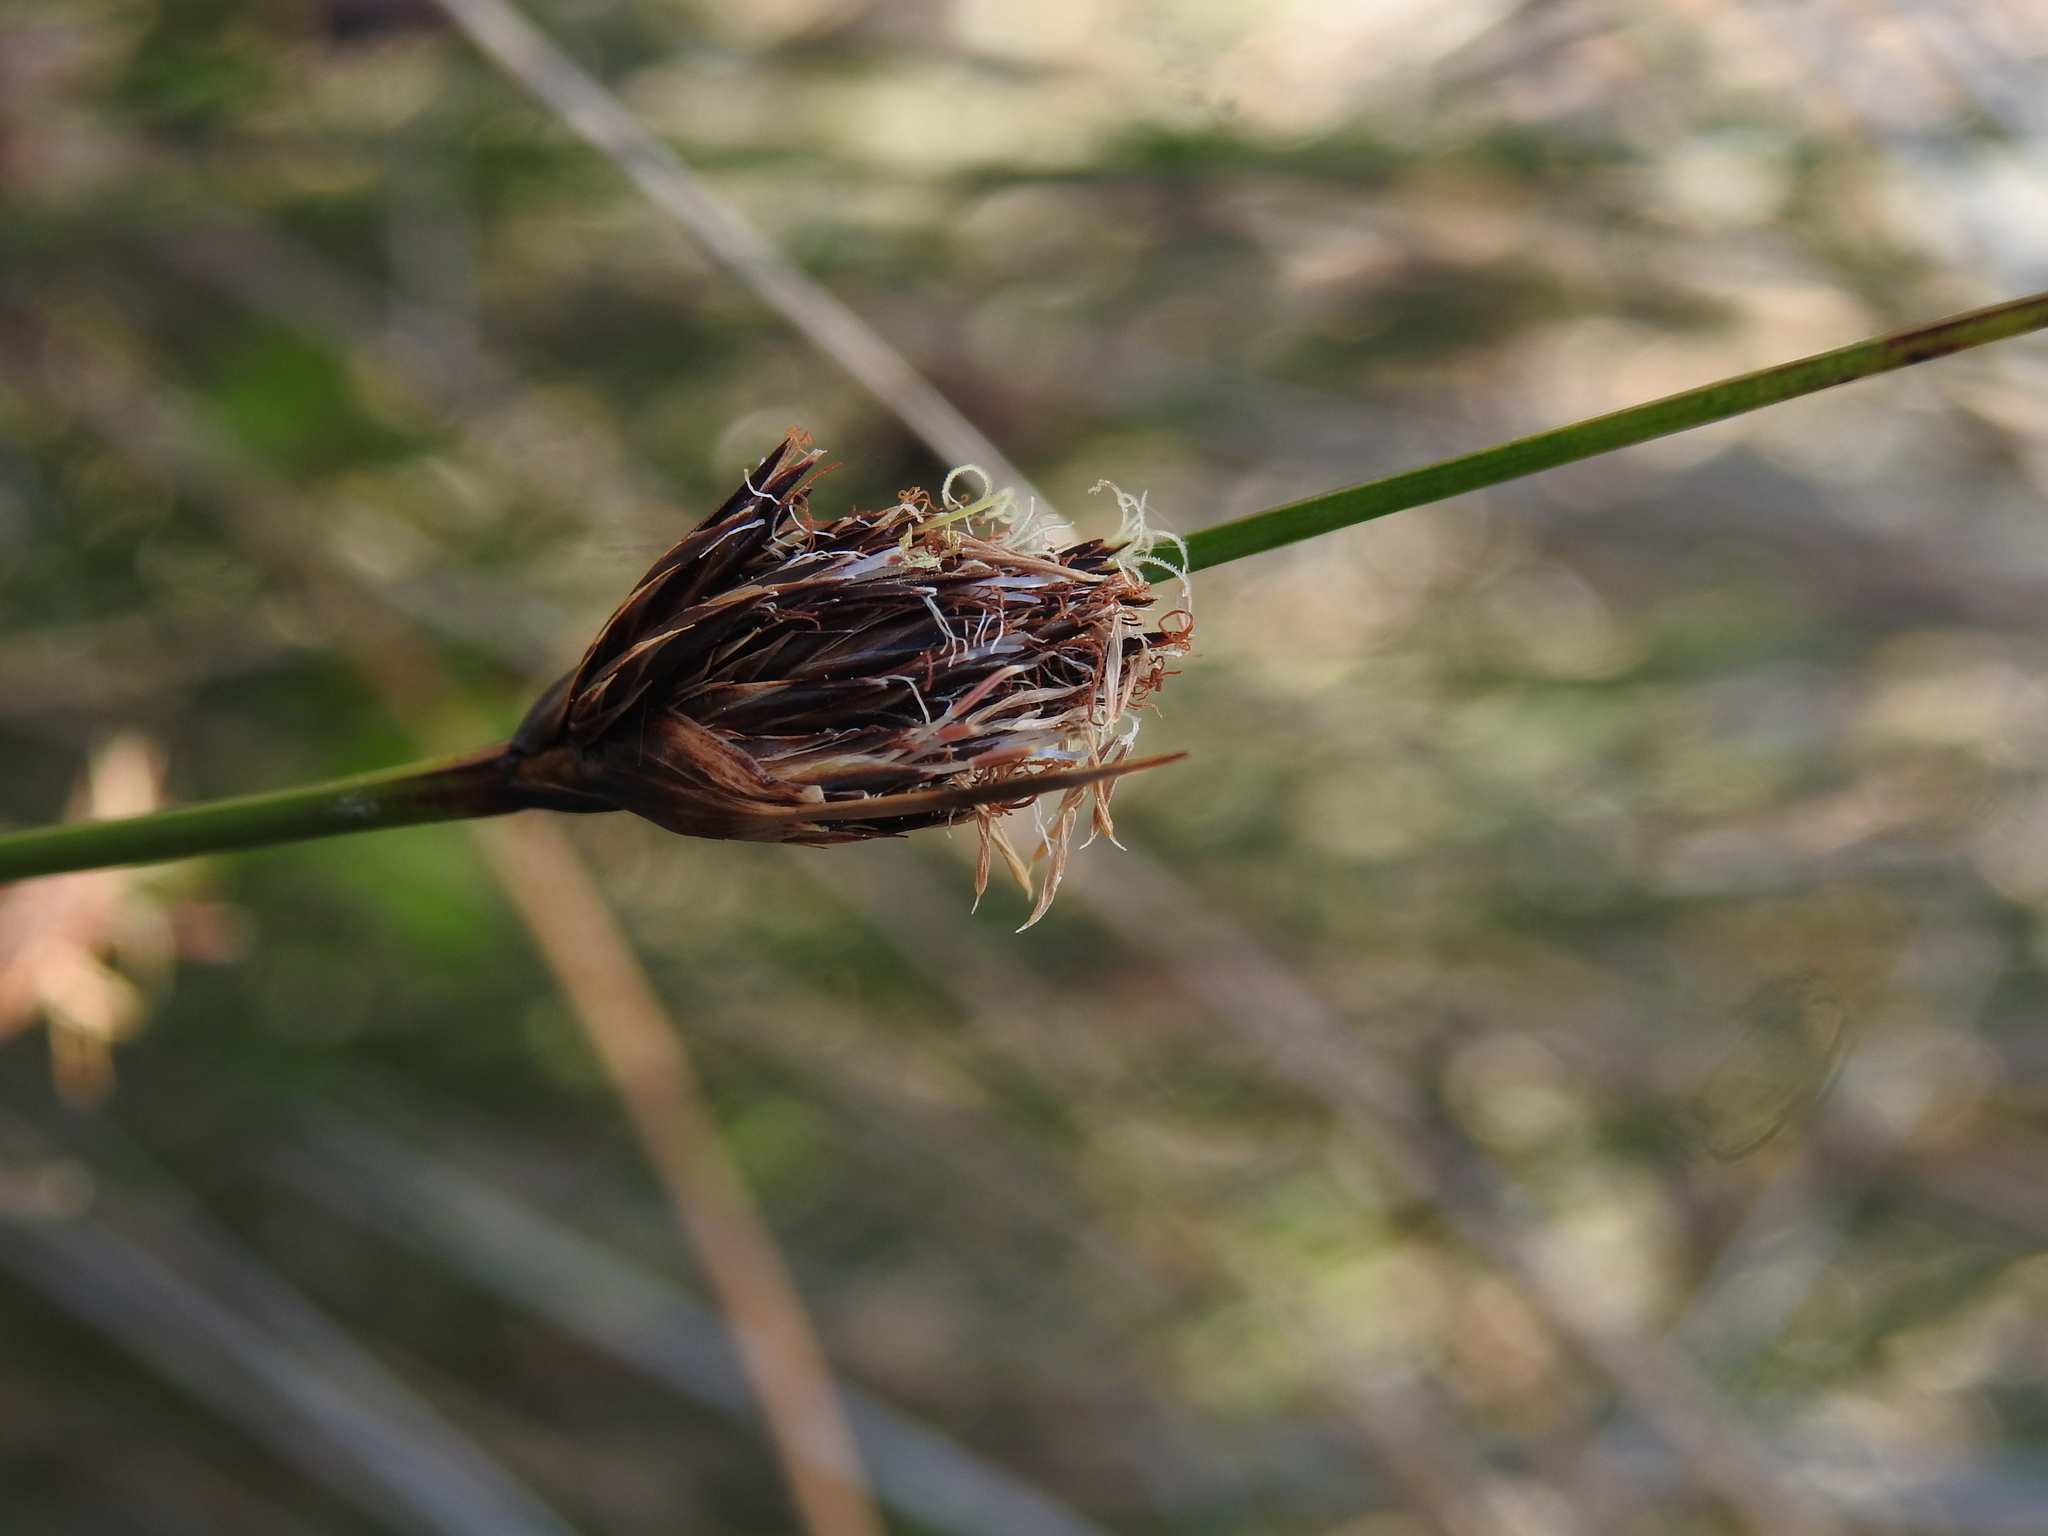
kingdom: Plantae
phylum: Tracheophyta
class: Liliopsida
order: Poales
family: Cyperaceae
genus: Schoenus
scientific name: Schoenus nigricans
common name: Black bog-rush
